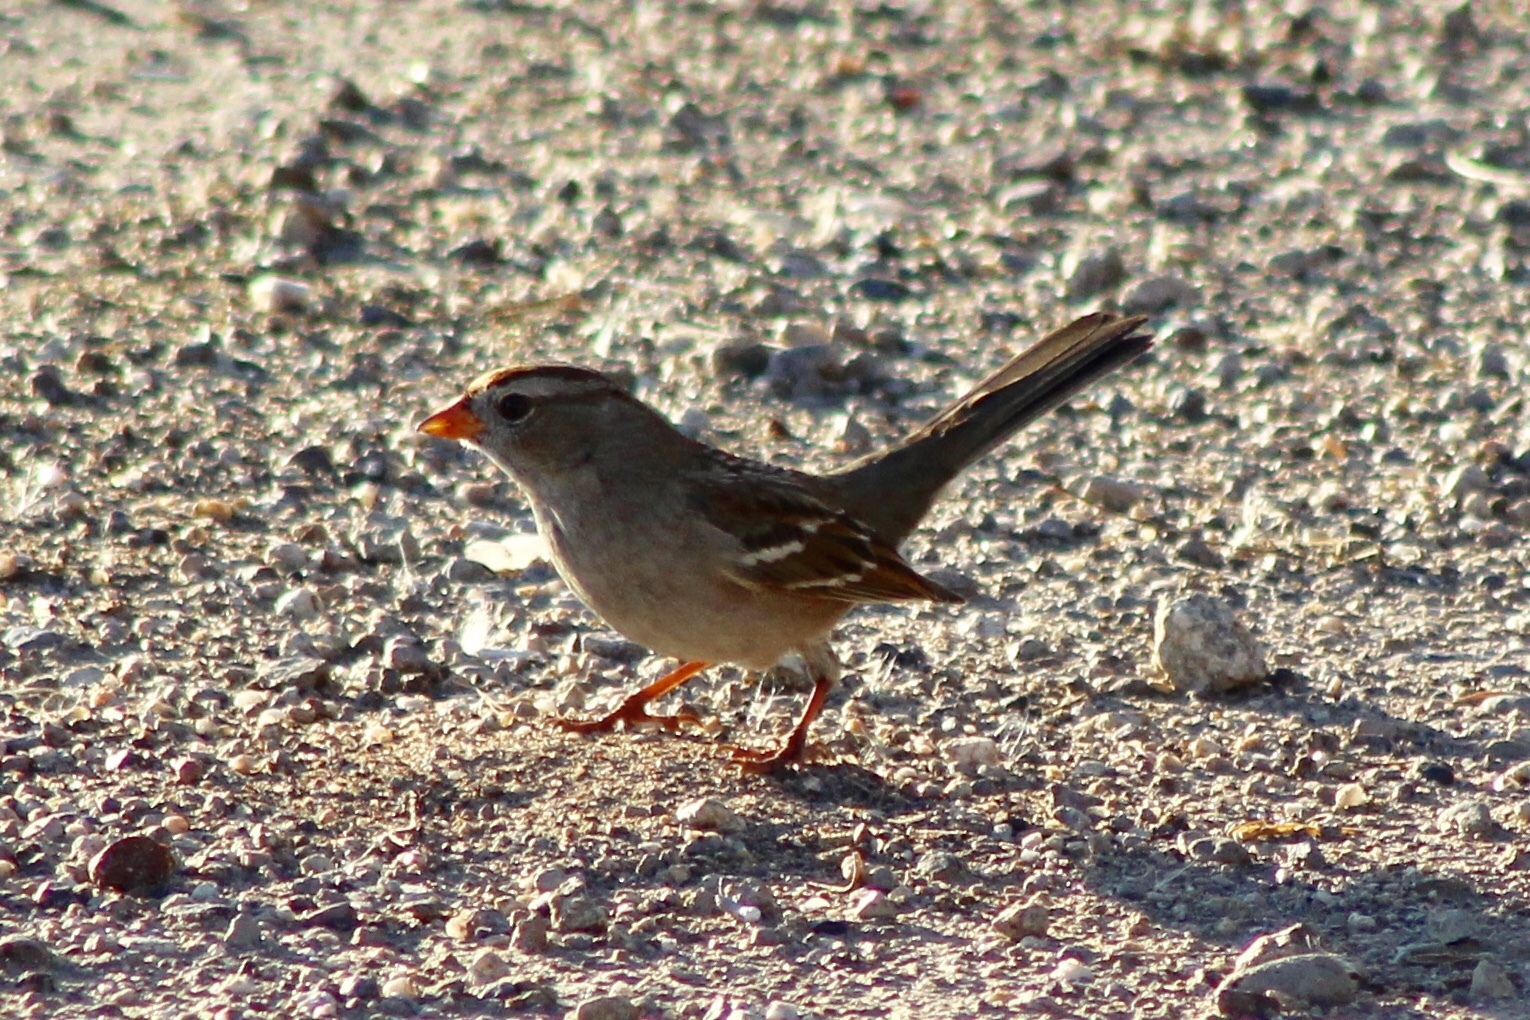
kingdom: Animalia
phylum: Chordata
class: Aves
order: Passeriformes
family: Passerellidae
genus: Zonotrichia
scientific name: Zonotrichia leucophrys
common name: White-crowned sparrow
